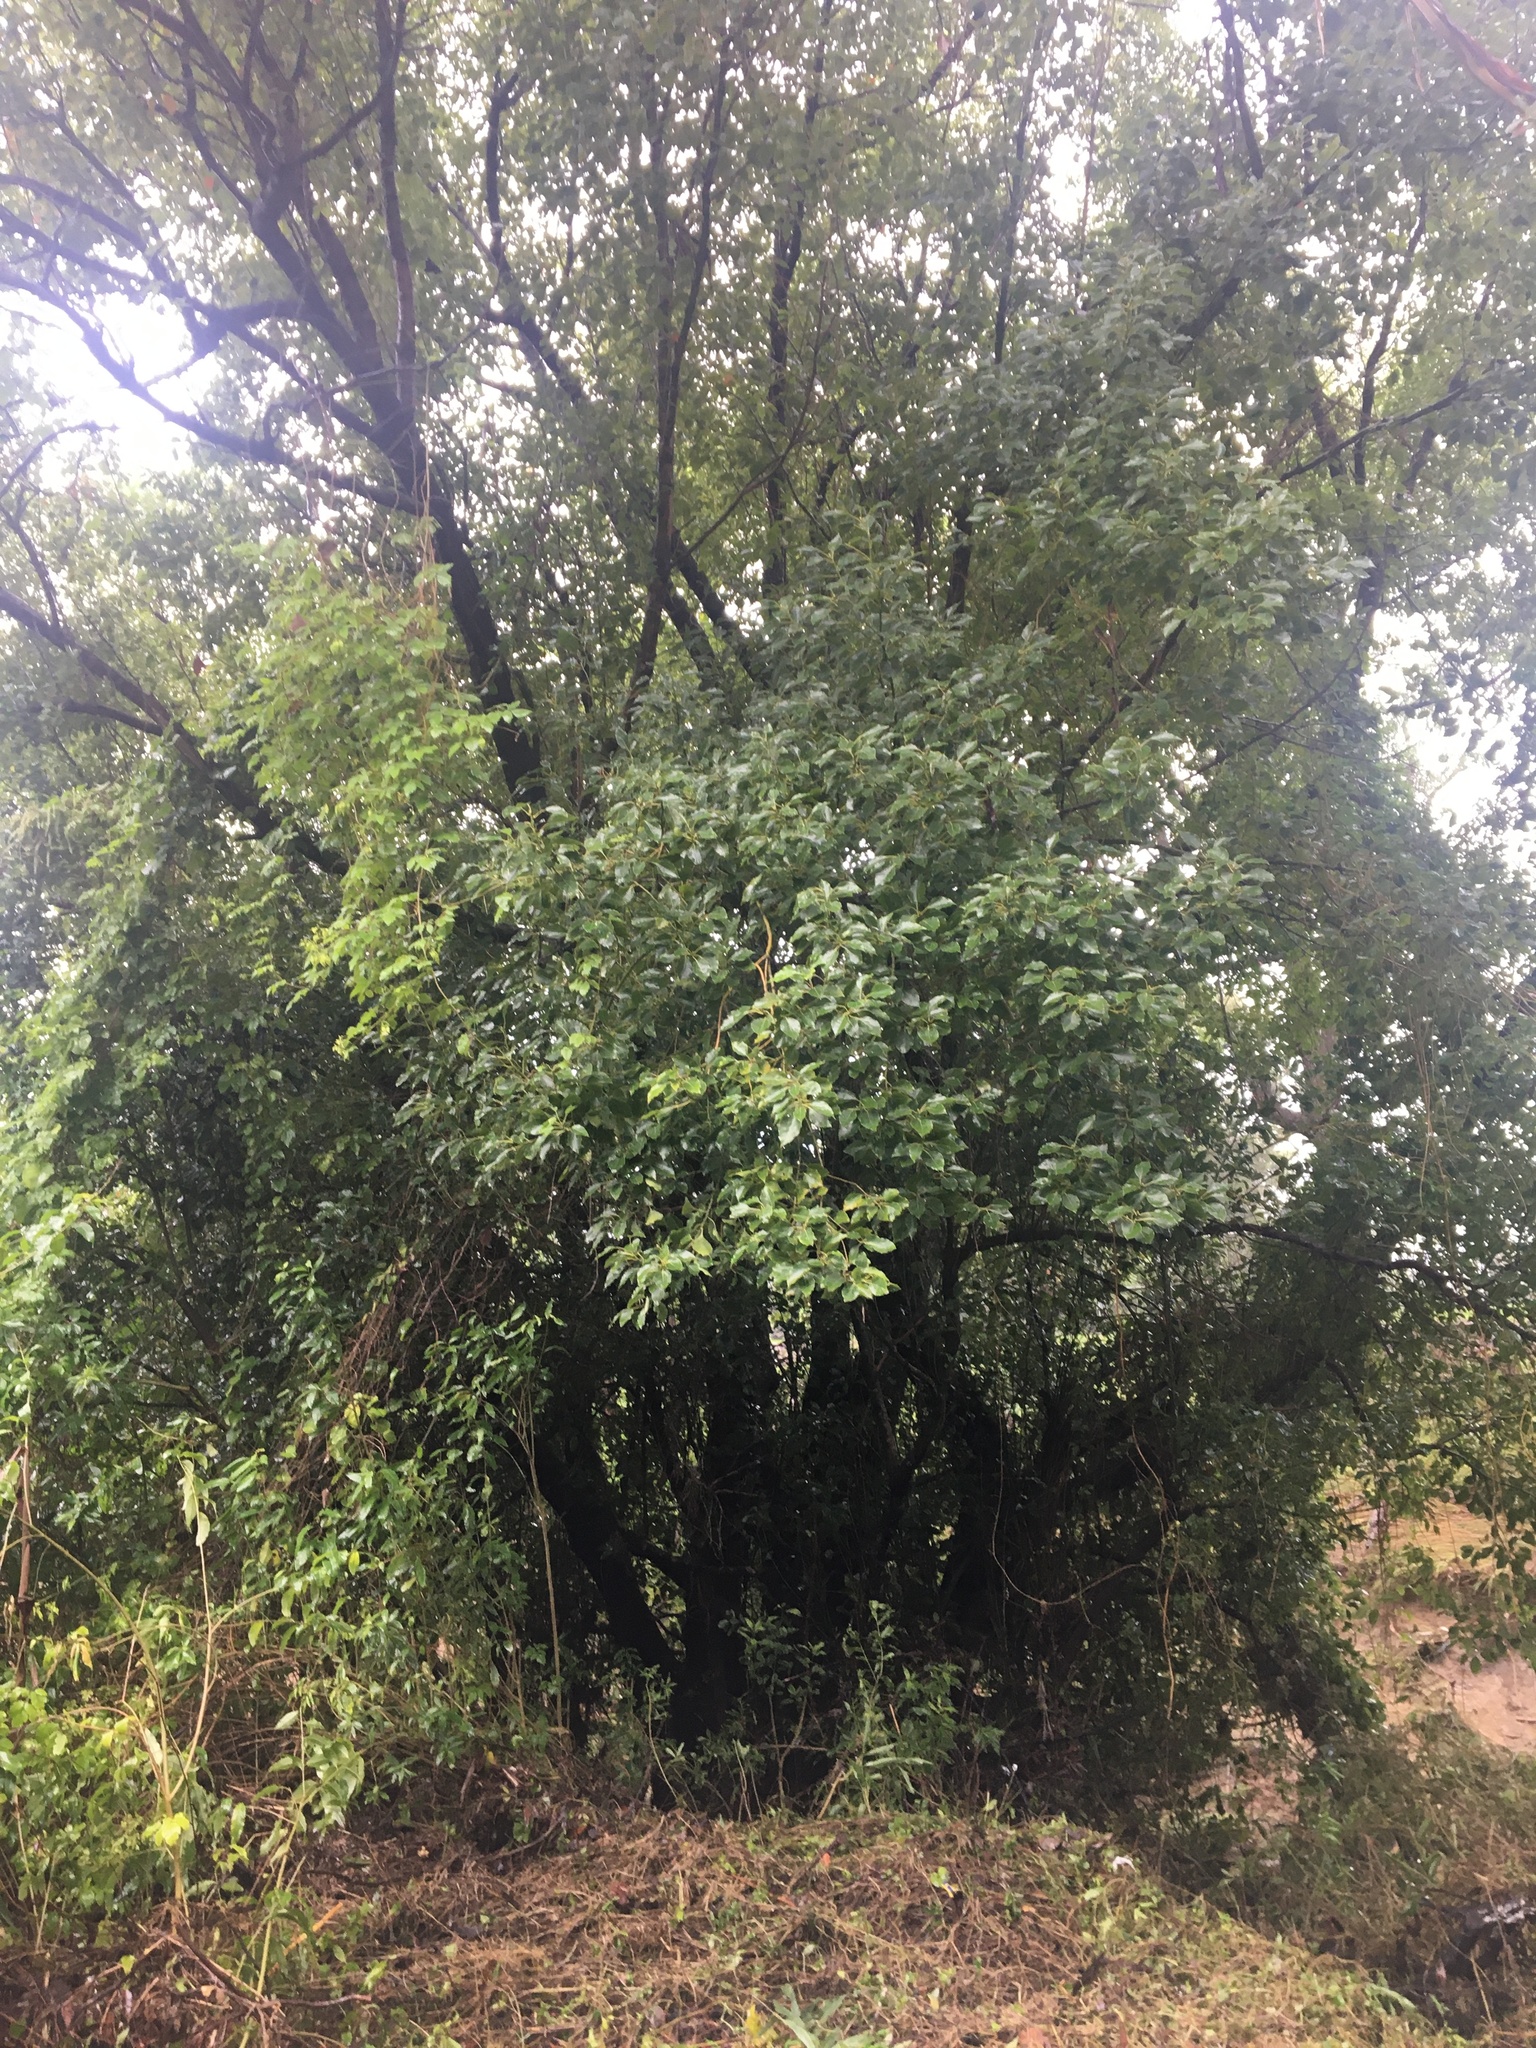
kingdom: Plantae
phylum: Tracheophyta
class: Magnoliopsida
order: Laurales
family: Lauraceae
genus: Cinnamomum
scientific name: Cinnamomum camphora
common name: Camphortree
